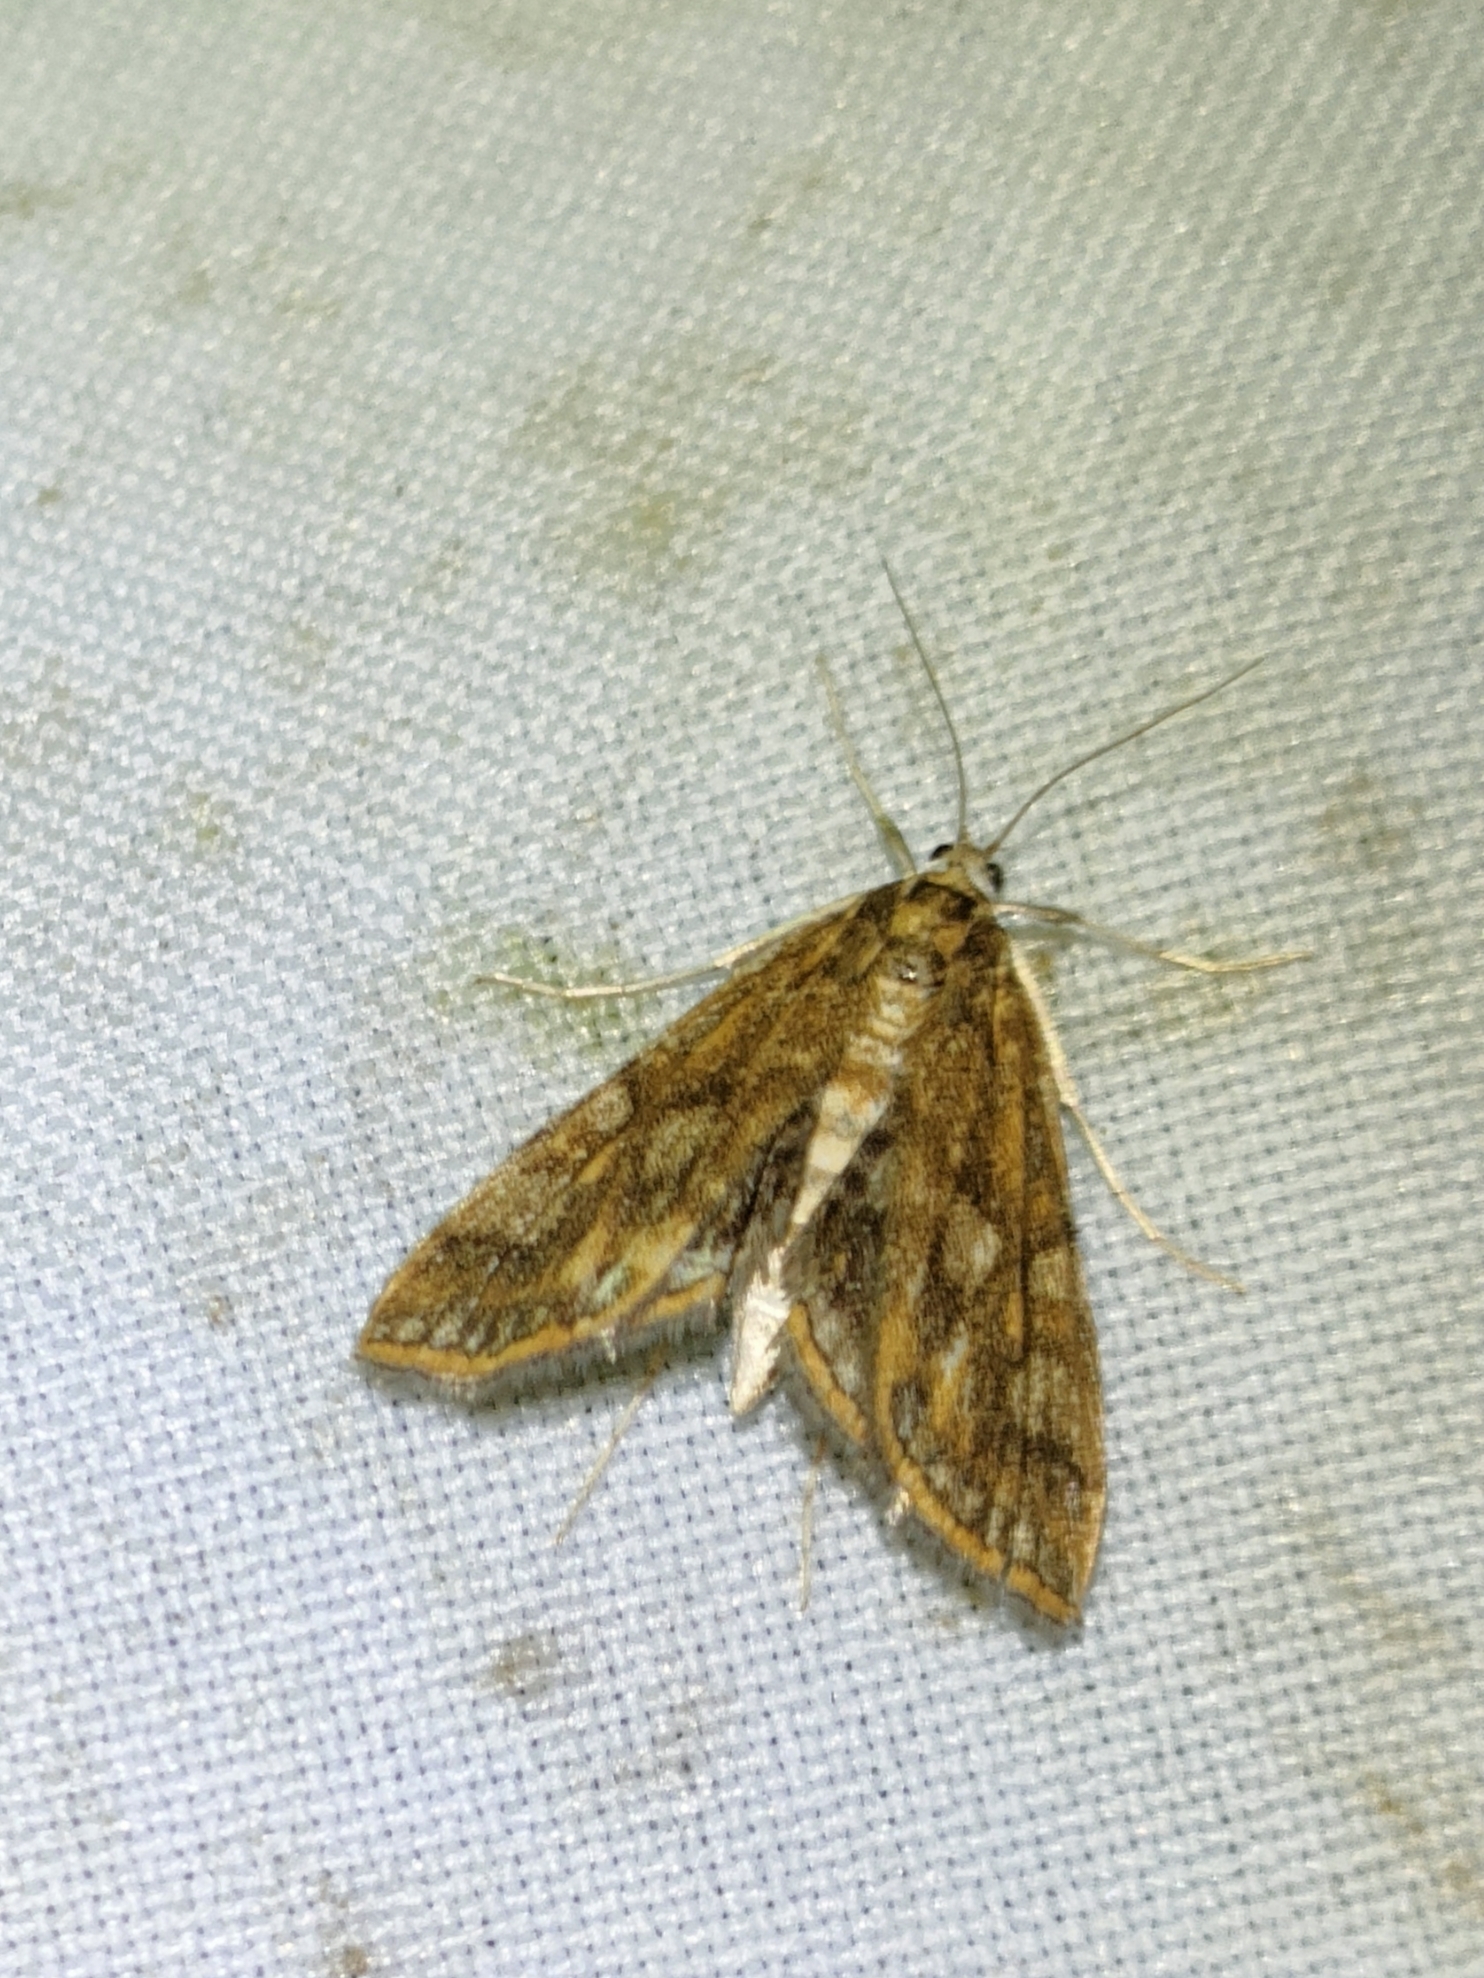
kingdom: Animalia
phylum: Arthropoda
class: Insecta
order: Lepidoptera
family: Crambidae
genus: Elophila
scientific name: Elophila feili
